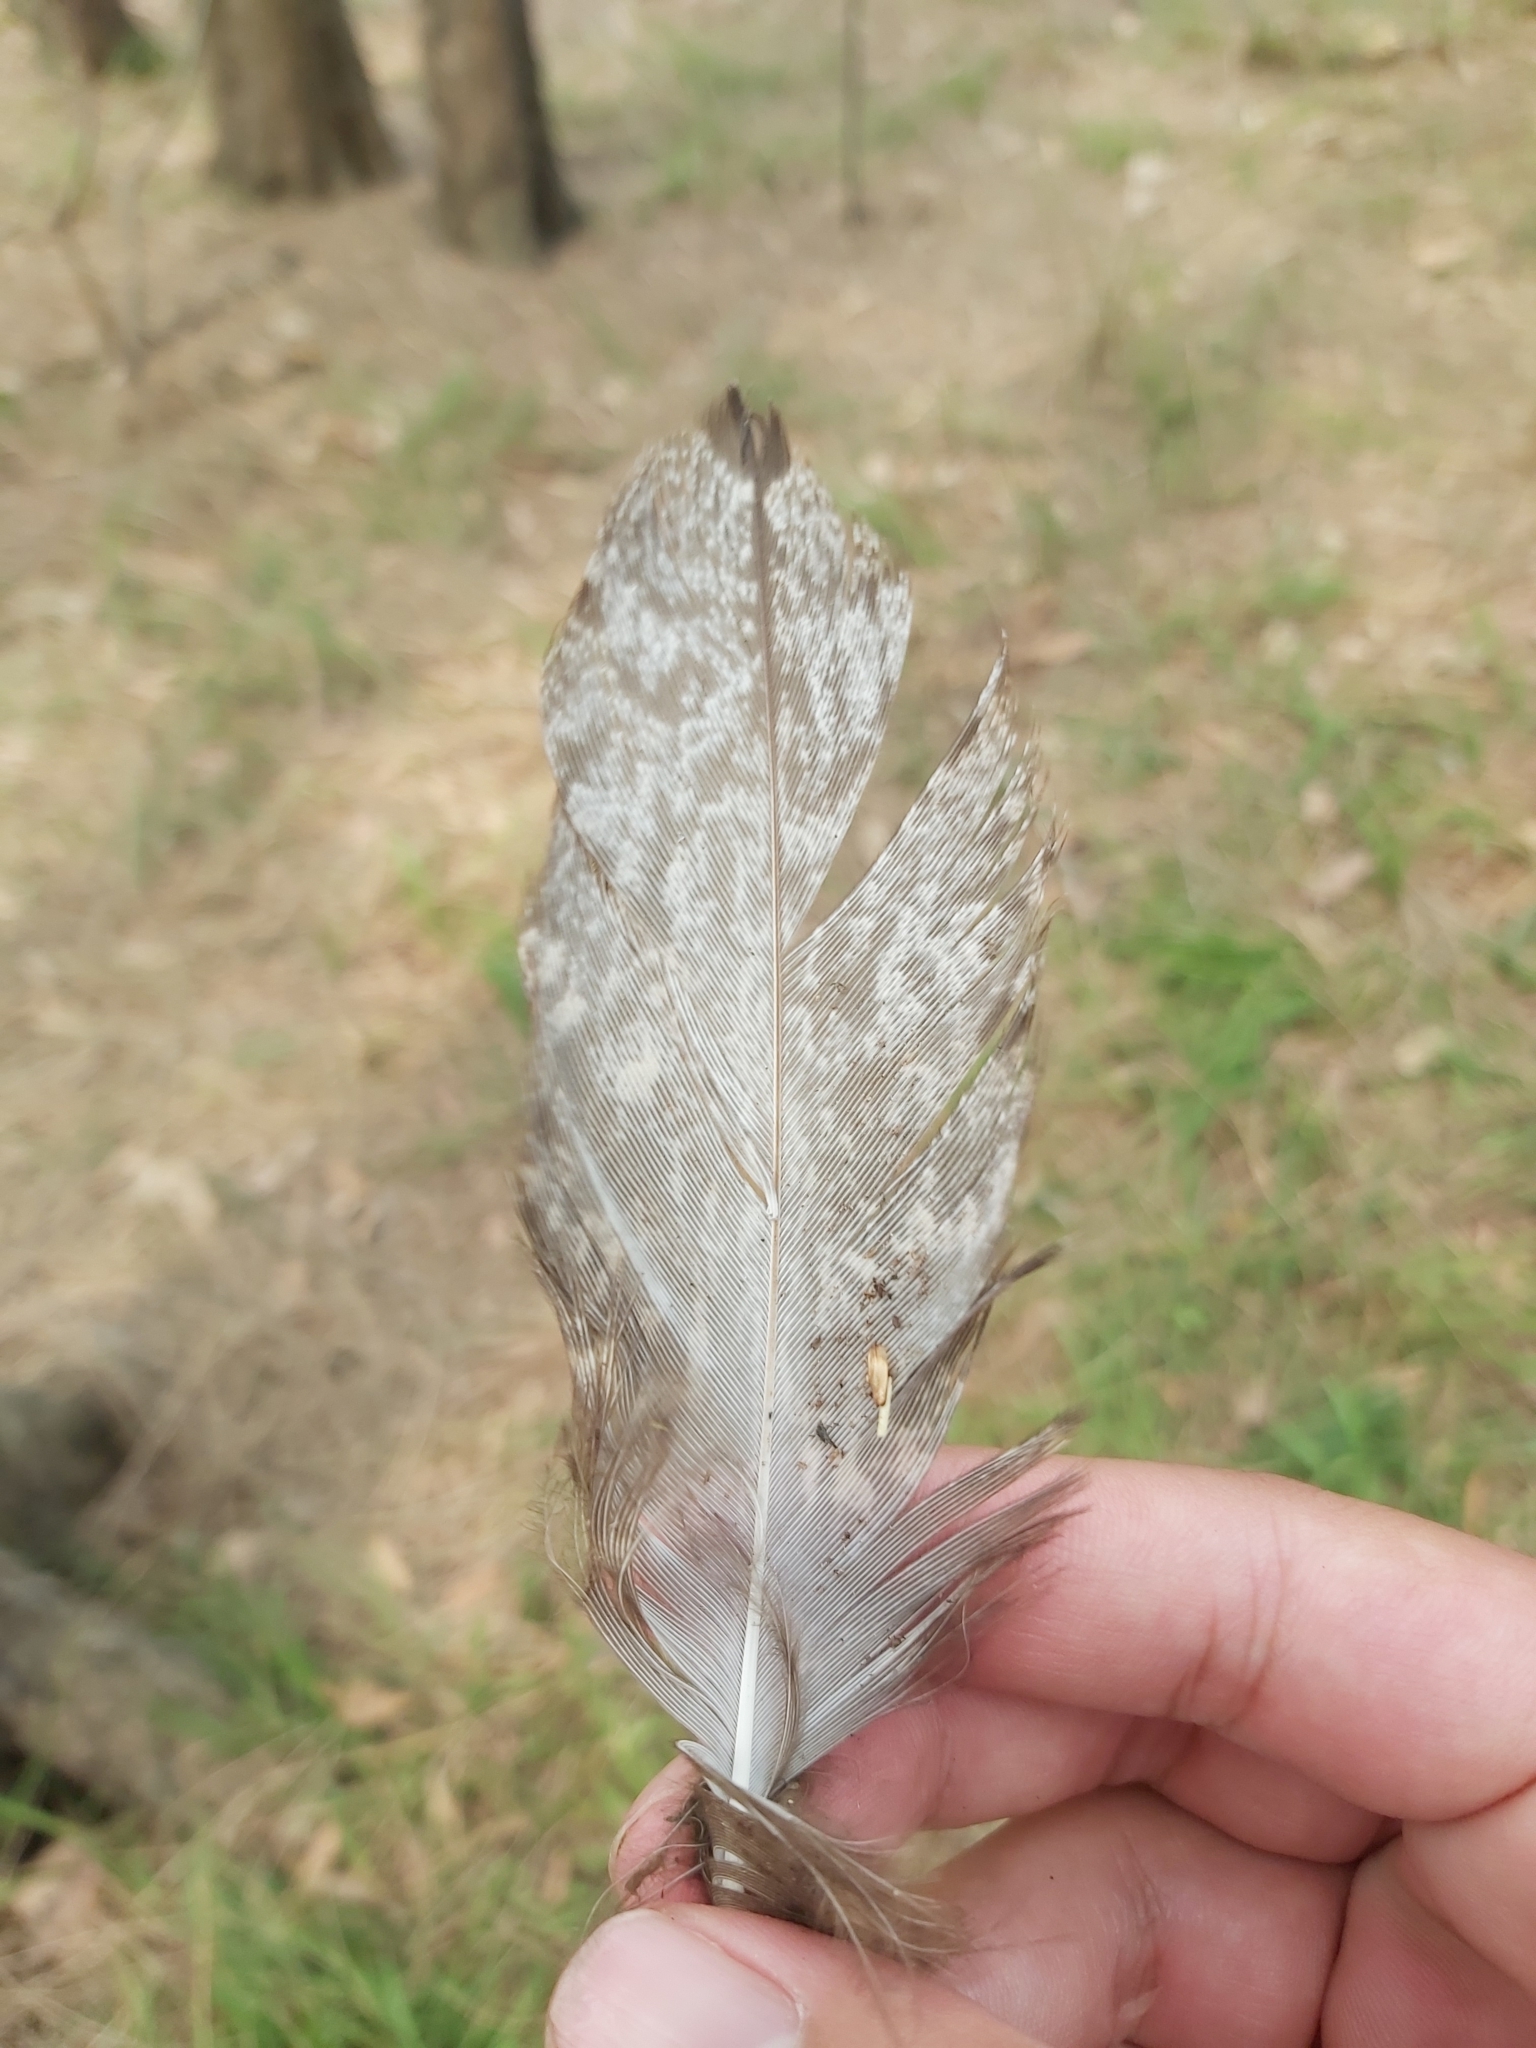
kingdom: Animalia
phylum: Chordata
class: Aves
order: Caprimulgiformes
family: Podargidae
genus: Podargus
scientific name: Podargus strigoides
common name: Tawny frogmouth
